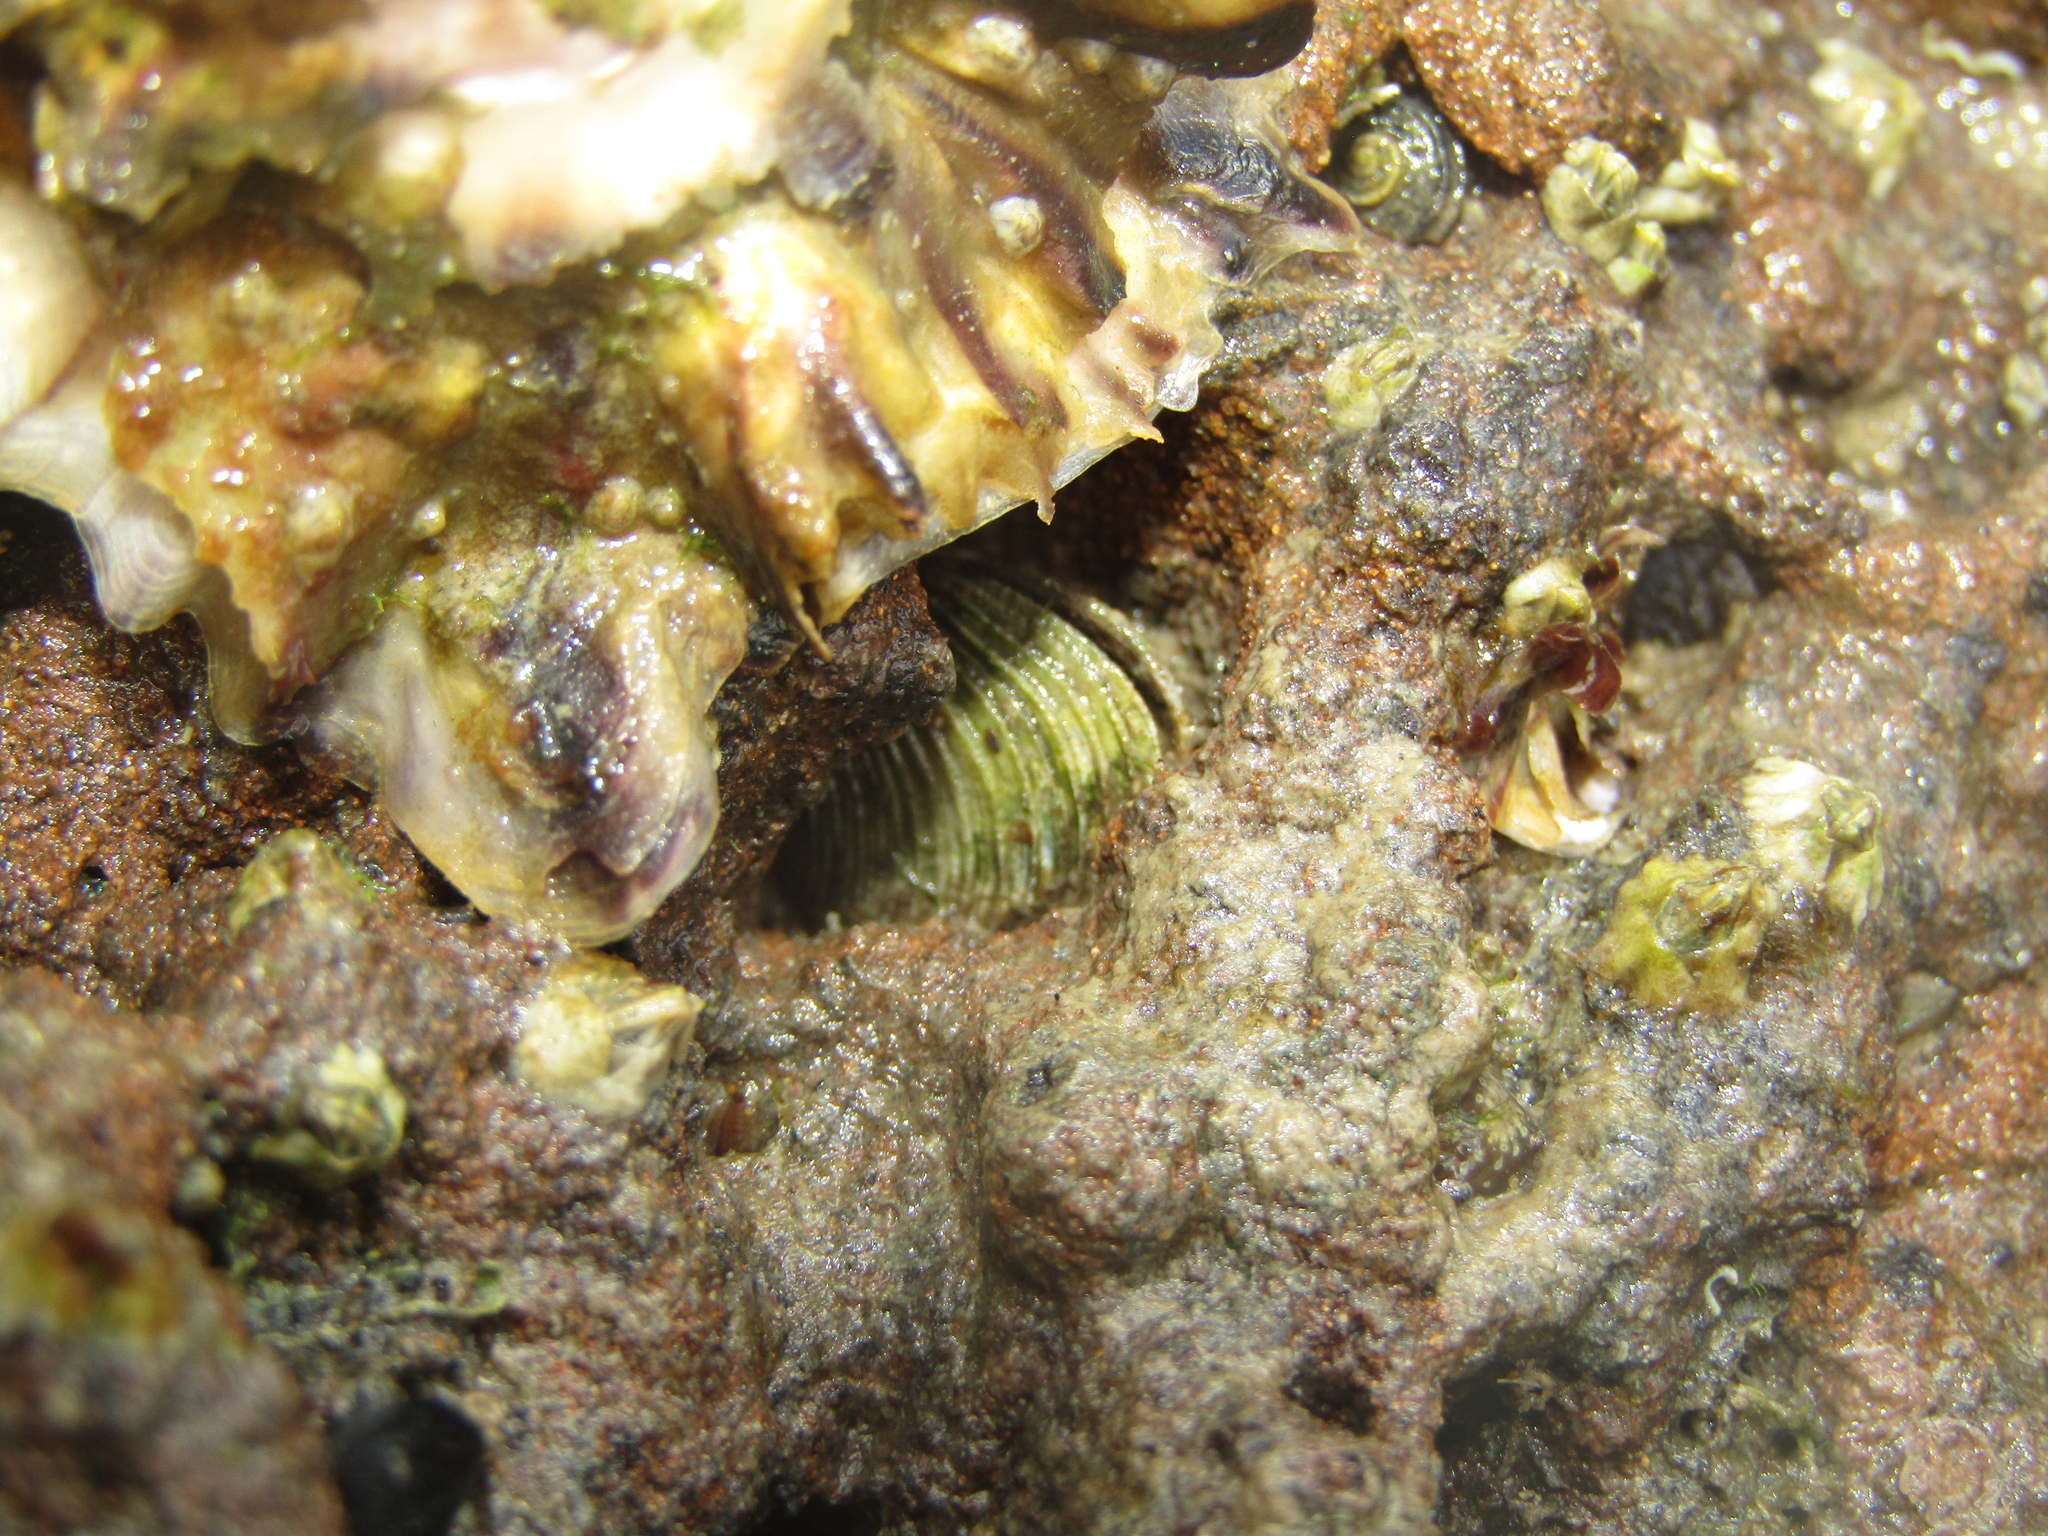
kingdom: Animalia
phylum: Mollusca
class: Bivalvia
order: Venerida
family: Veneridae
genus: Irus
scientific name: Irus reflexus
